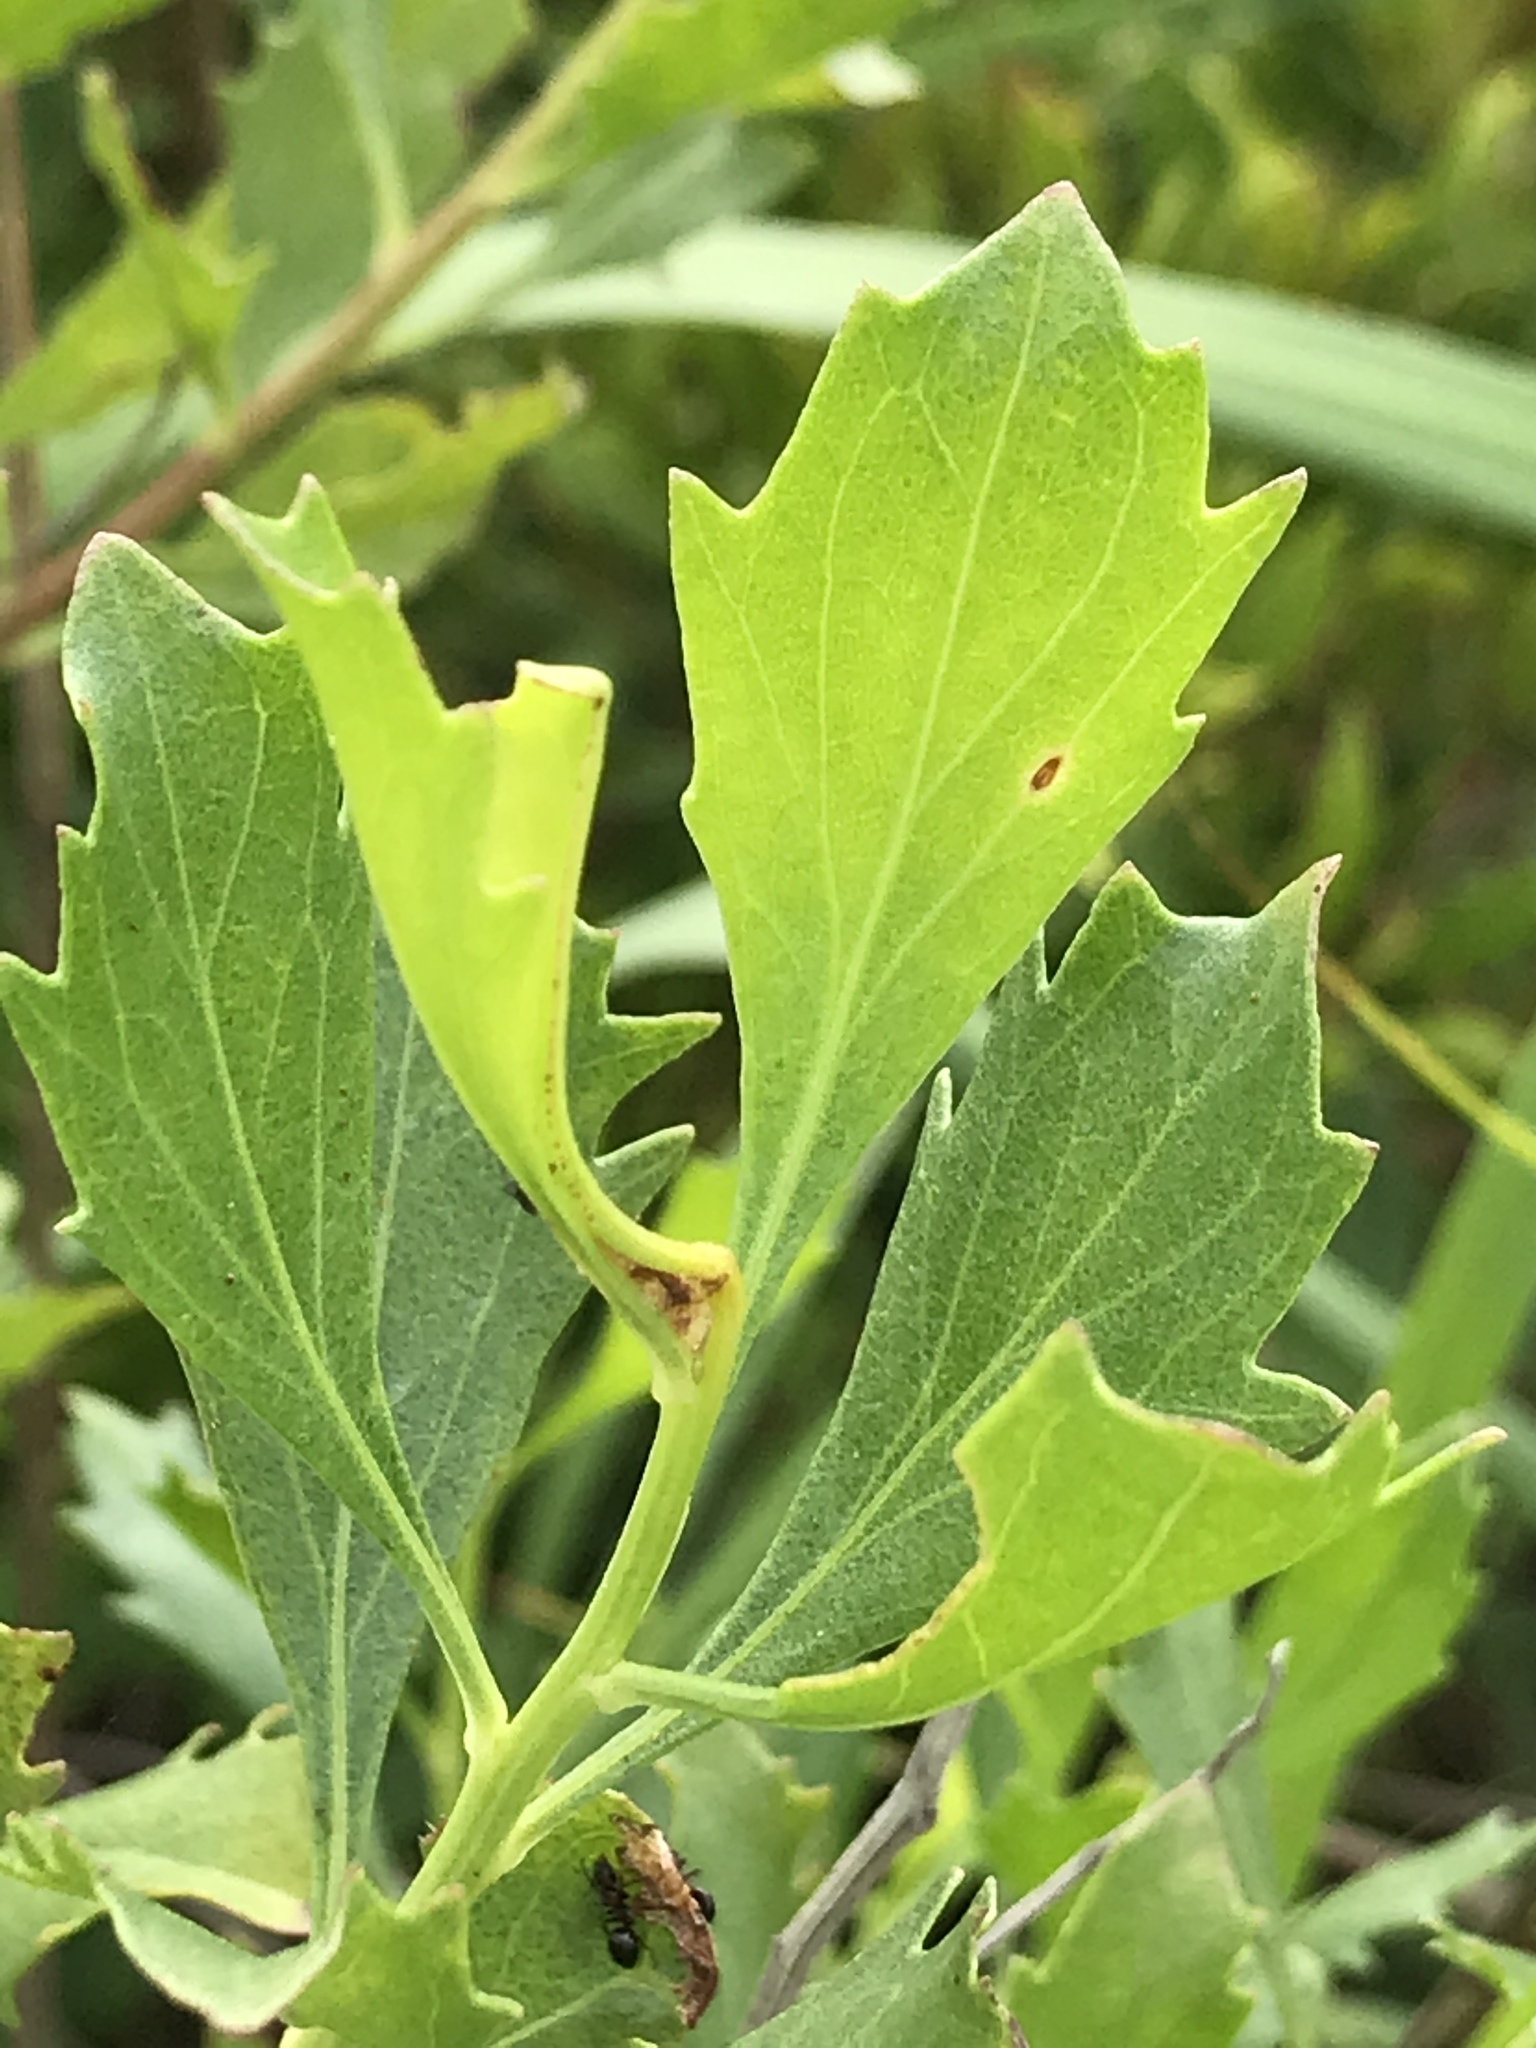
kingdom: Plantae
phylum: Tracheophyta
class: Magnoliopsida
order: Asterales
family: Asteraceae
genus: Baccharis
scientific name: Baccharis halimifolia
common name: Eastern baccharis
